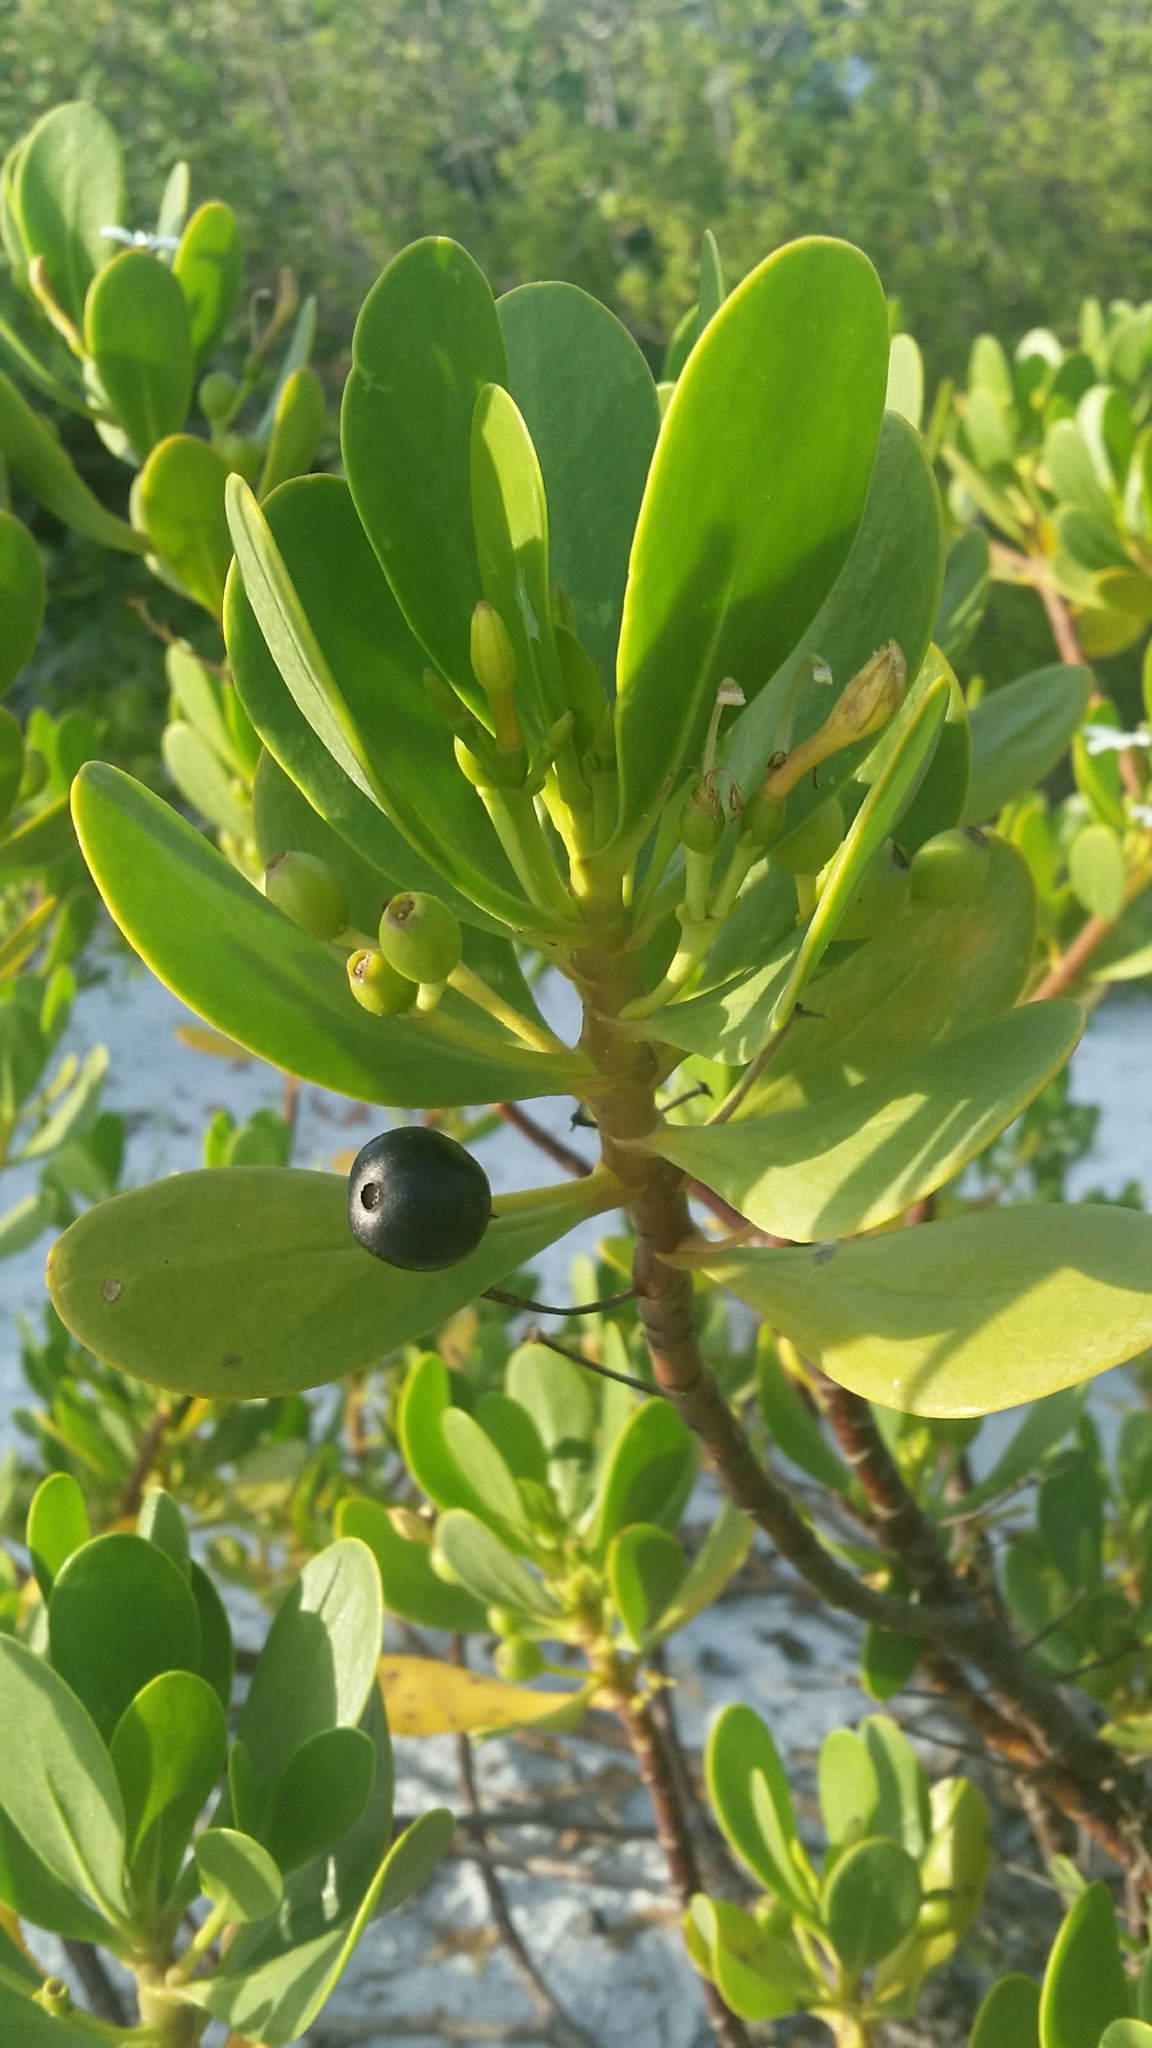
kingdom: Plantae
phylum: Tracheophyta
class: Magnoliopsida
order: Asterales
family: Goodeniaceae
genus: Scaevola
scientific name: Scaevola plumieri
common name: Gull feed
